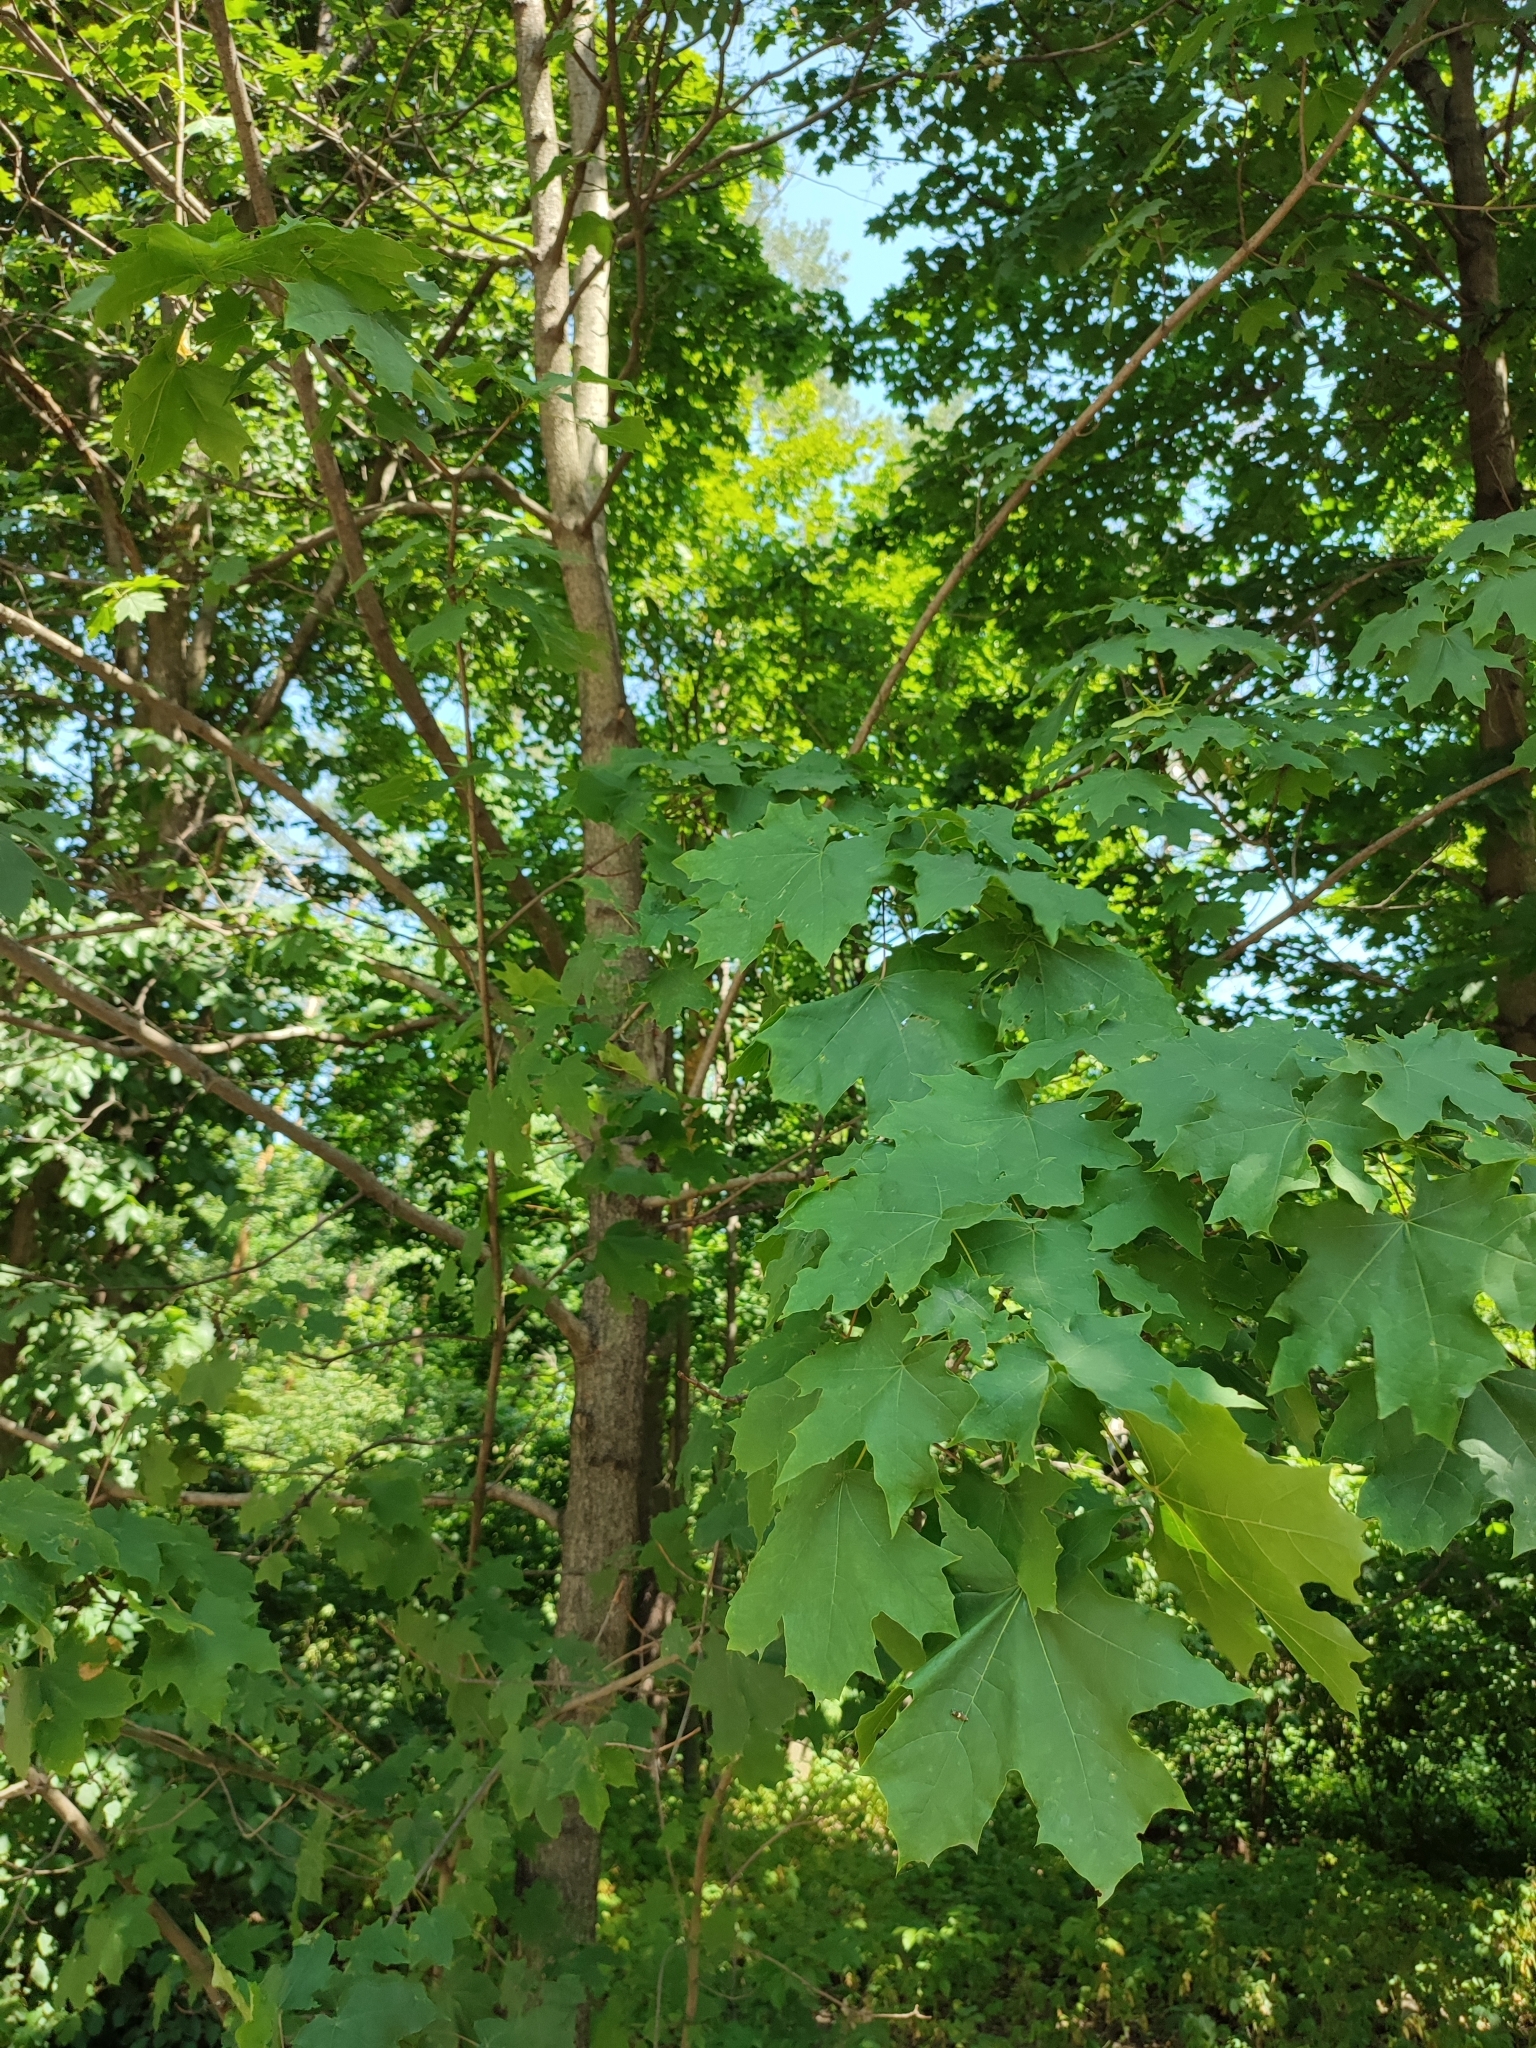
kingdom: Plantae
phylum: Tracheophyta
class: Magnoliopsida
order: Sapindales
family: Sapindaceae
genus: Acer
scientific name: Acer platanoides
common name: Norway maple
